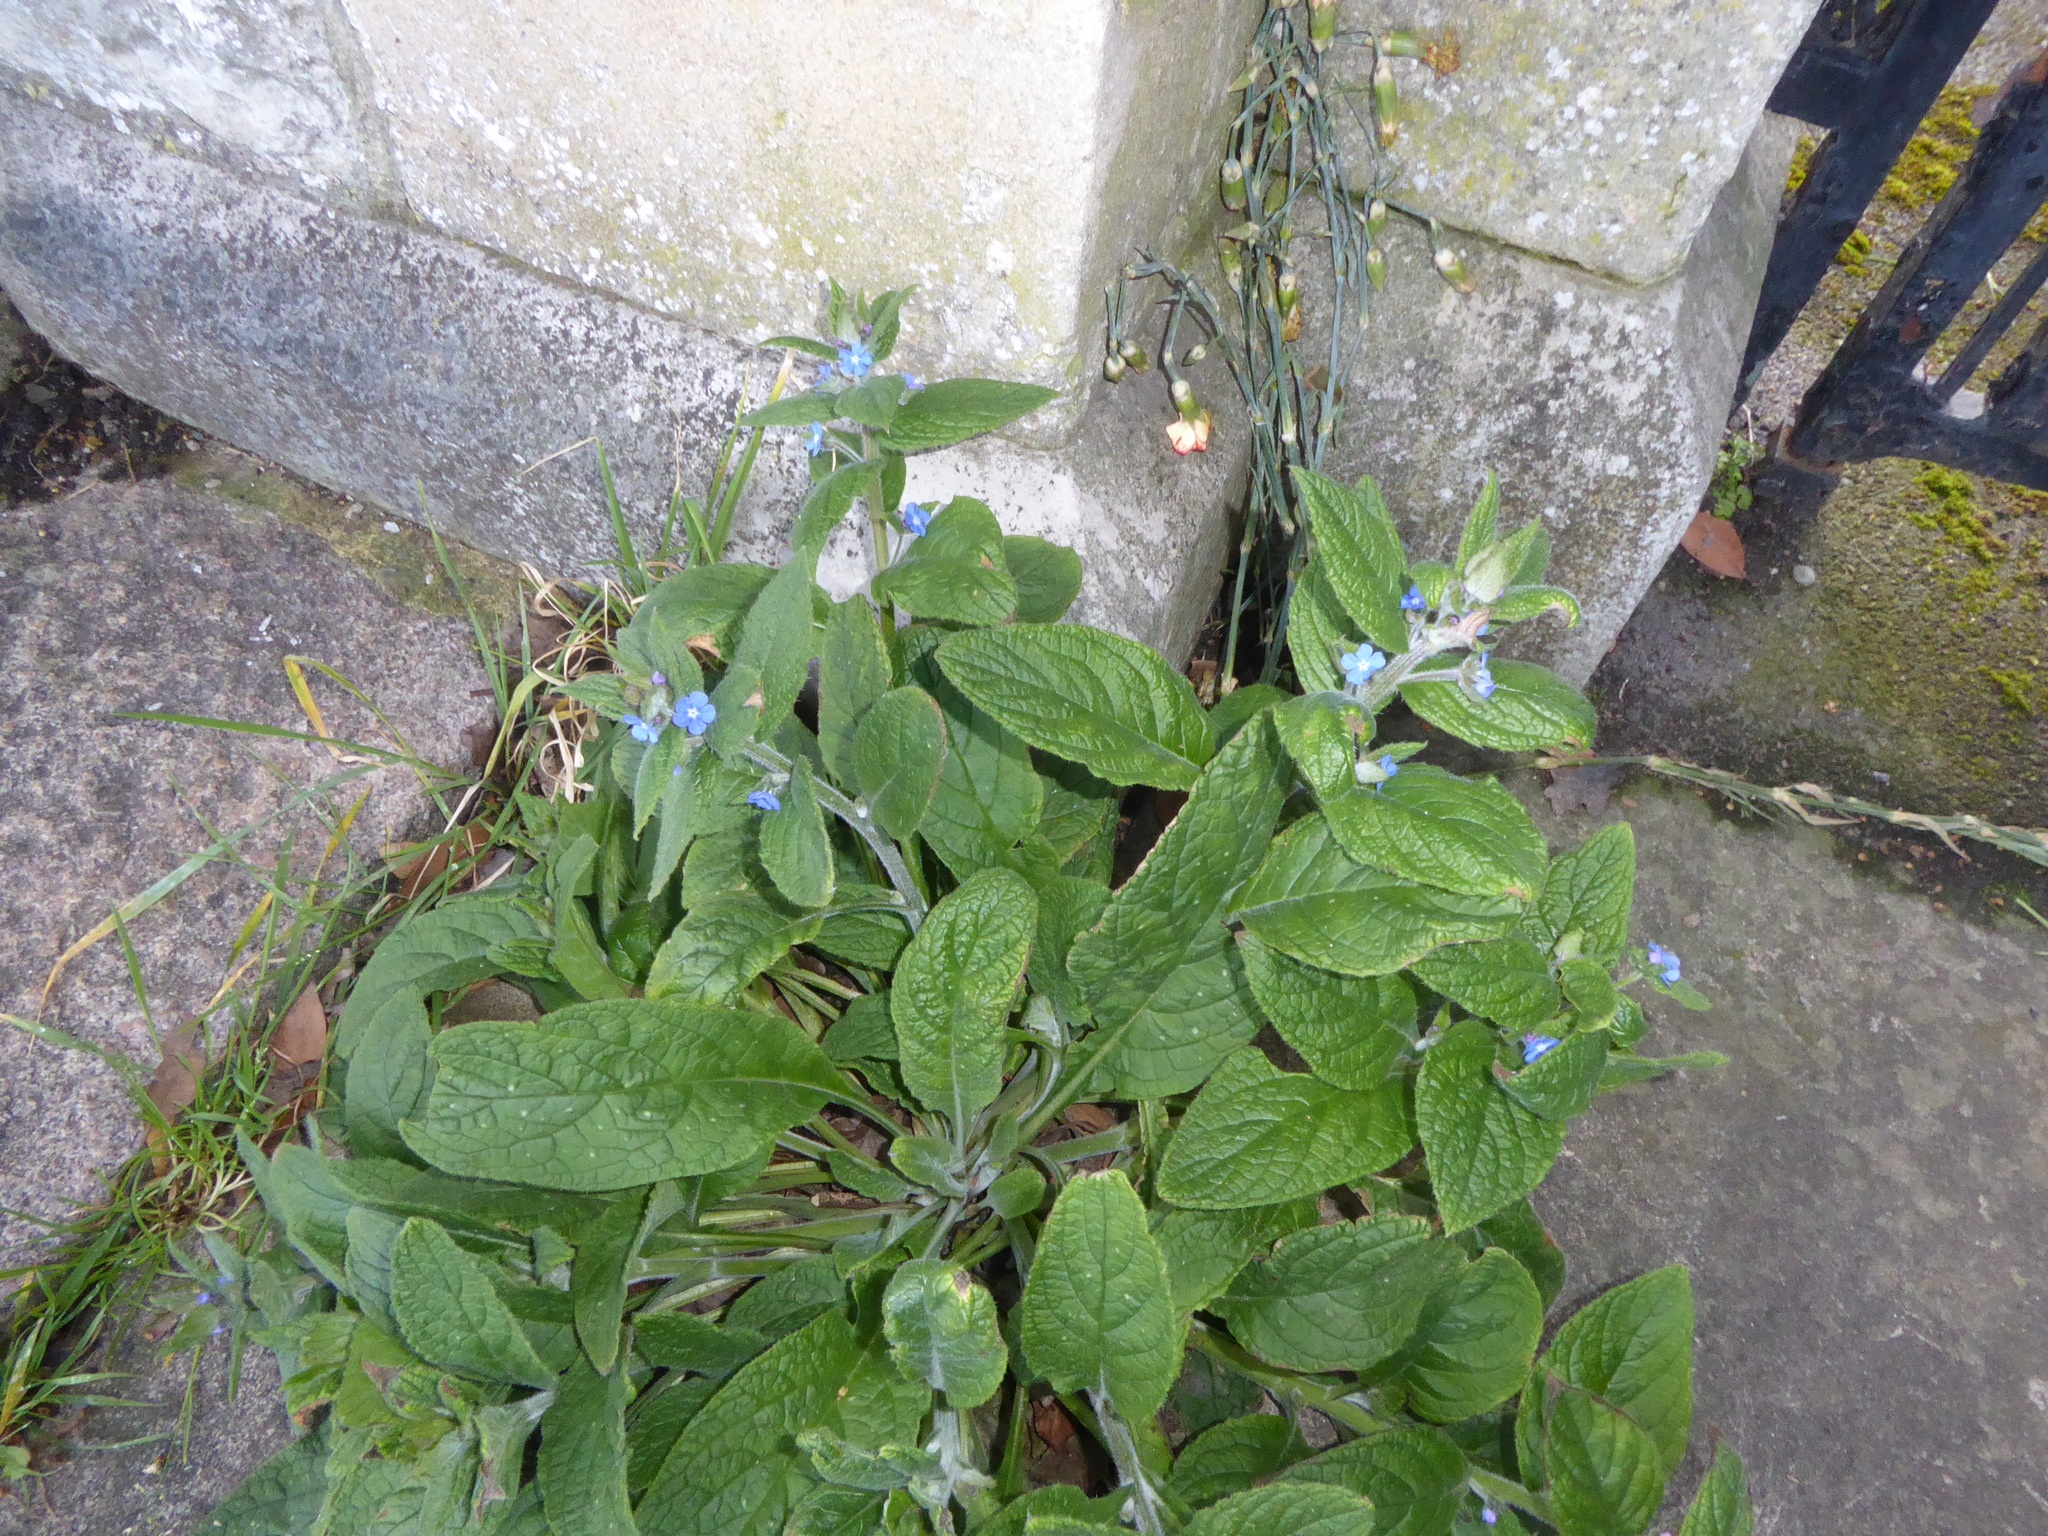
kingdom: Plantae
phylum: Tracheophyta
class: Magnoliopsida
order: Boraginales
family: Boraginaceae
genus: Pentaglottis
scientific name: Pentaglottis sempervirens
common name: Green alkanet
